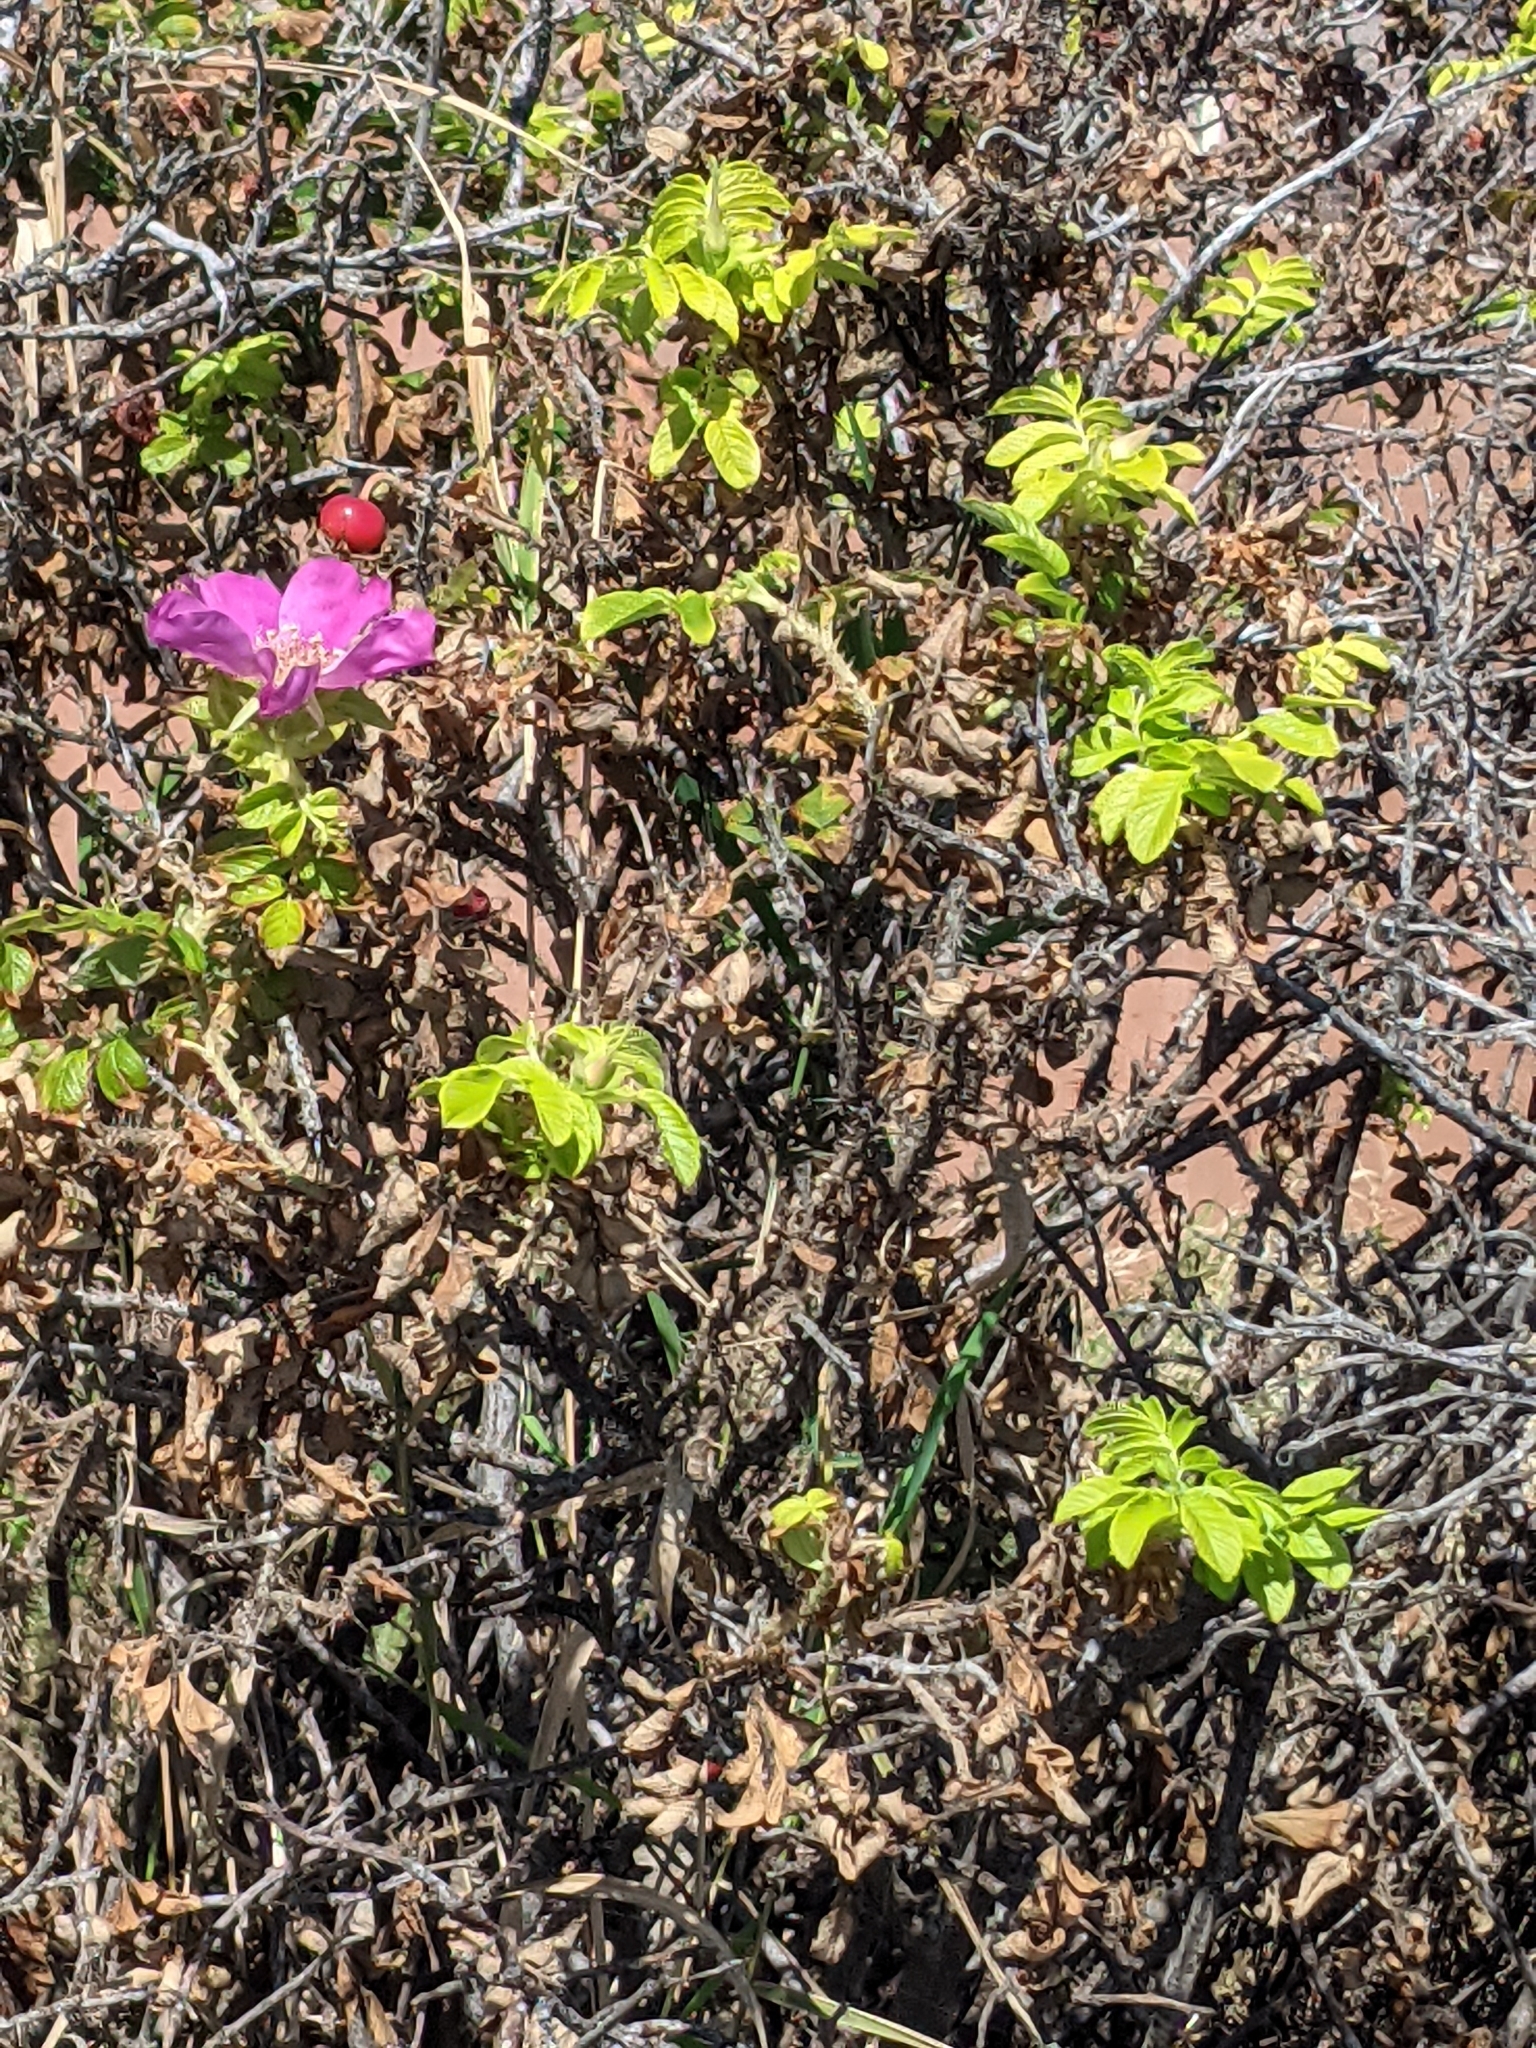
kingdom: Plantae
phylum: Tracheophyta
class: Magnoliopsida
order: Rosales
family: Rosaceae
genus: Rosa
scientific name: Rosa rugosa
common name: Japanese rose
